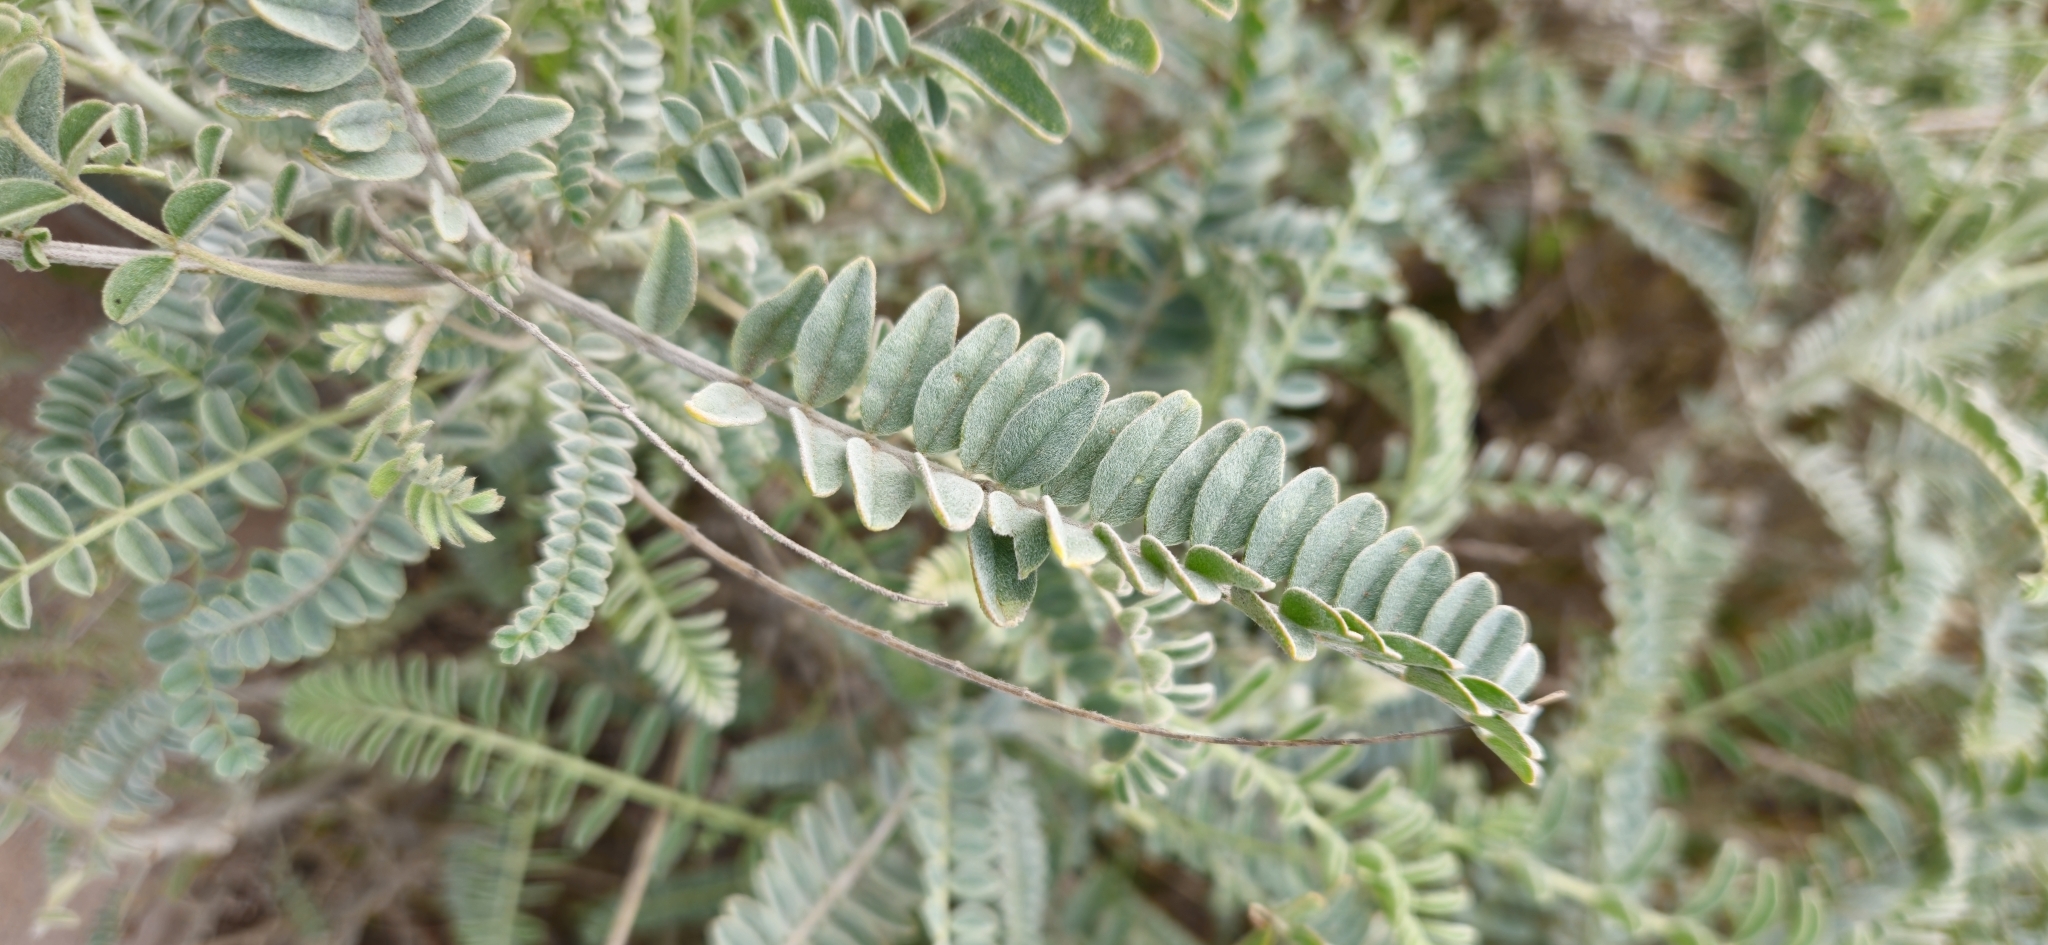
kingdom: Plantae
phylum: Tracheophyta
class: Magnoliopsida
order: Fabales
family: Fabaceae
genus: Astragalus
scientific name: Astragalus trichopodus
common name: Santa barbara milk-vetch
